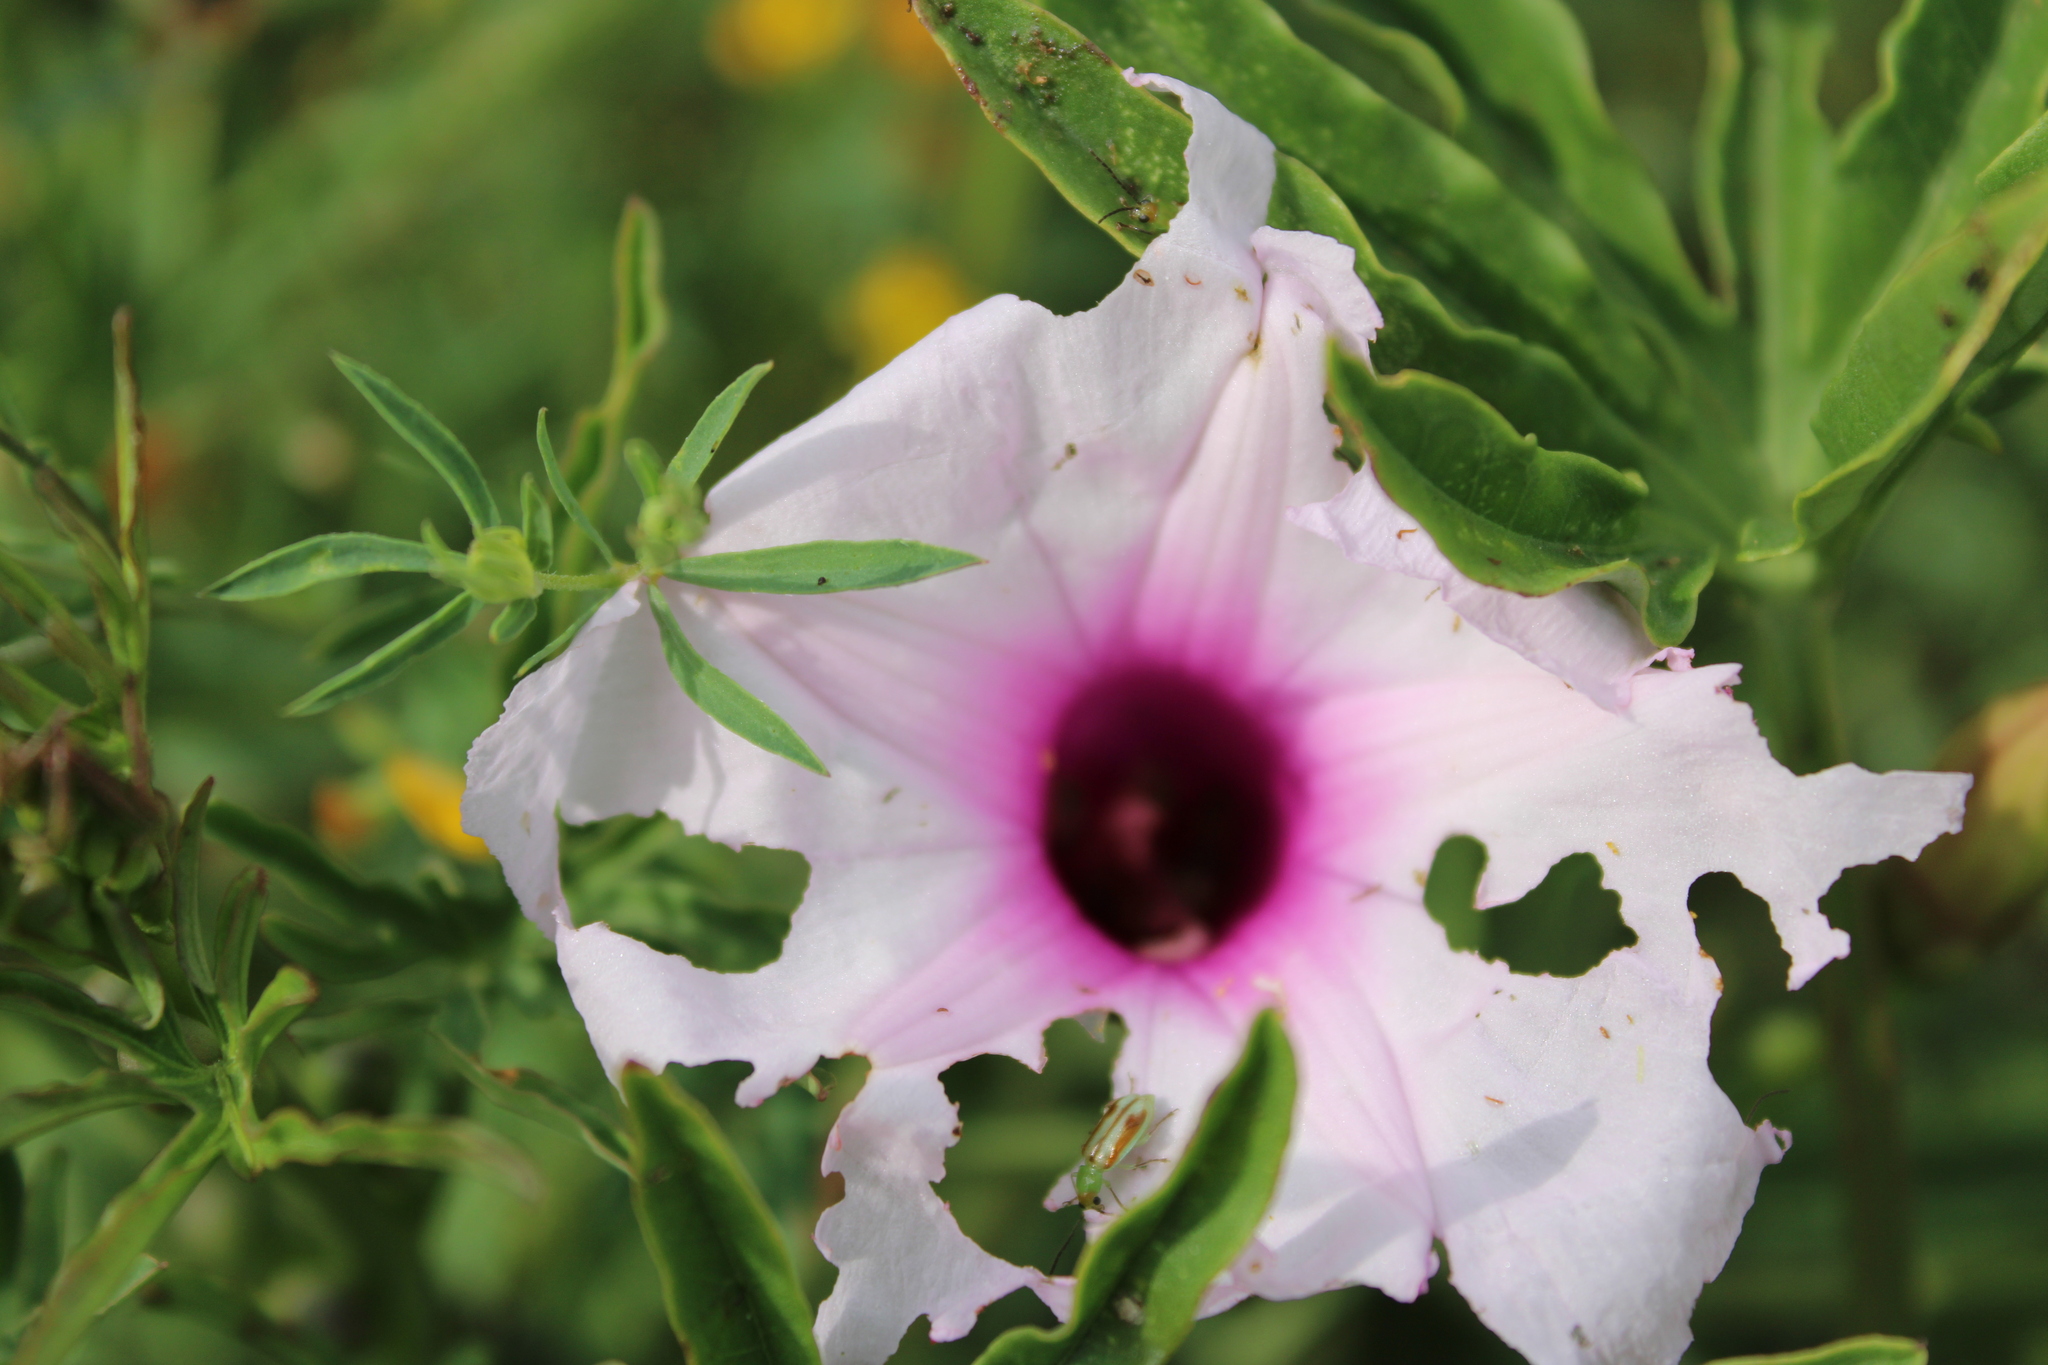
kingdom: Plantae
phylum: Tracheophyta
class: Magnoliopsida
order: Solanales
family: Convolvulaceae
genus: Ipomoea
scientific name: Ipomoea platensis
